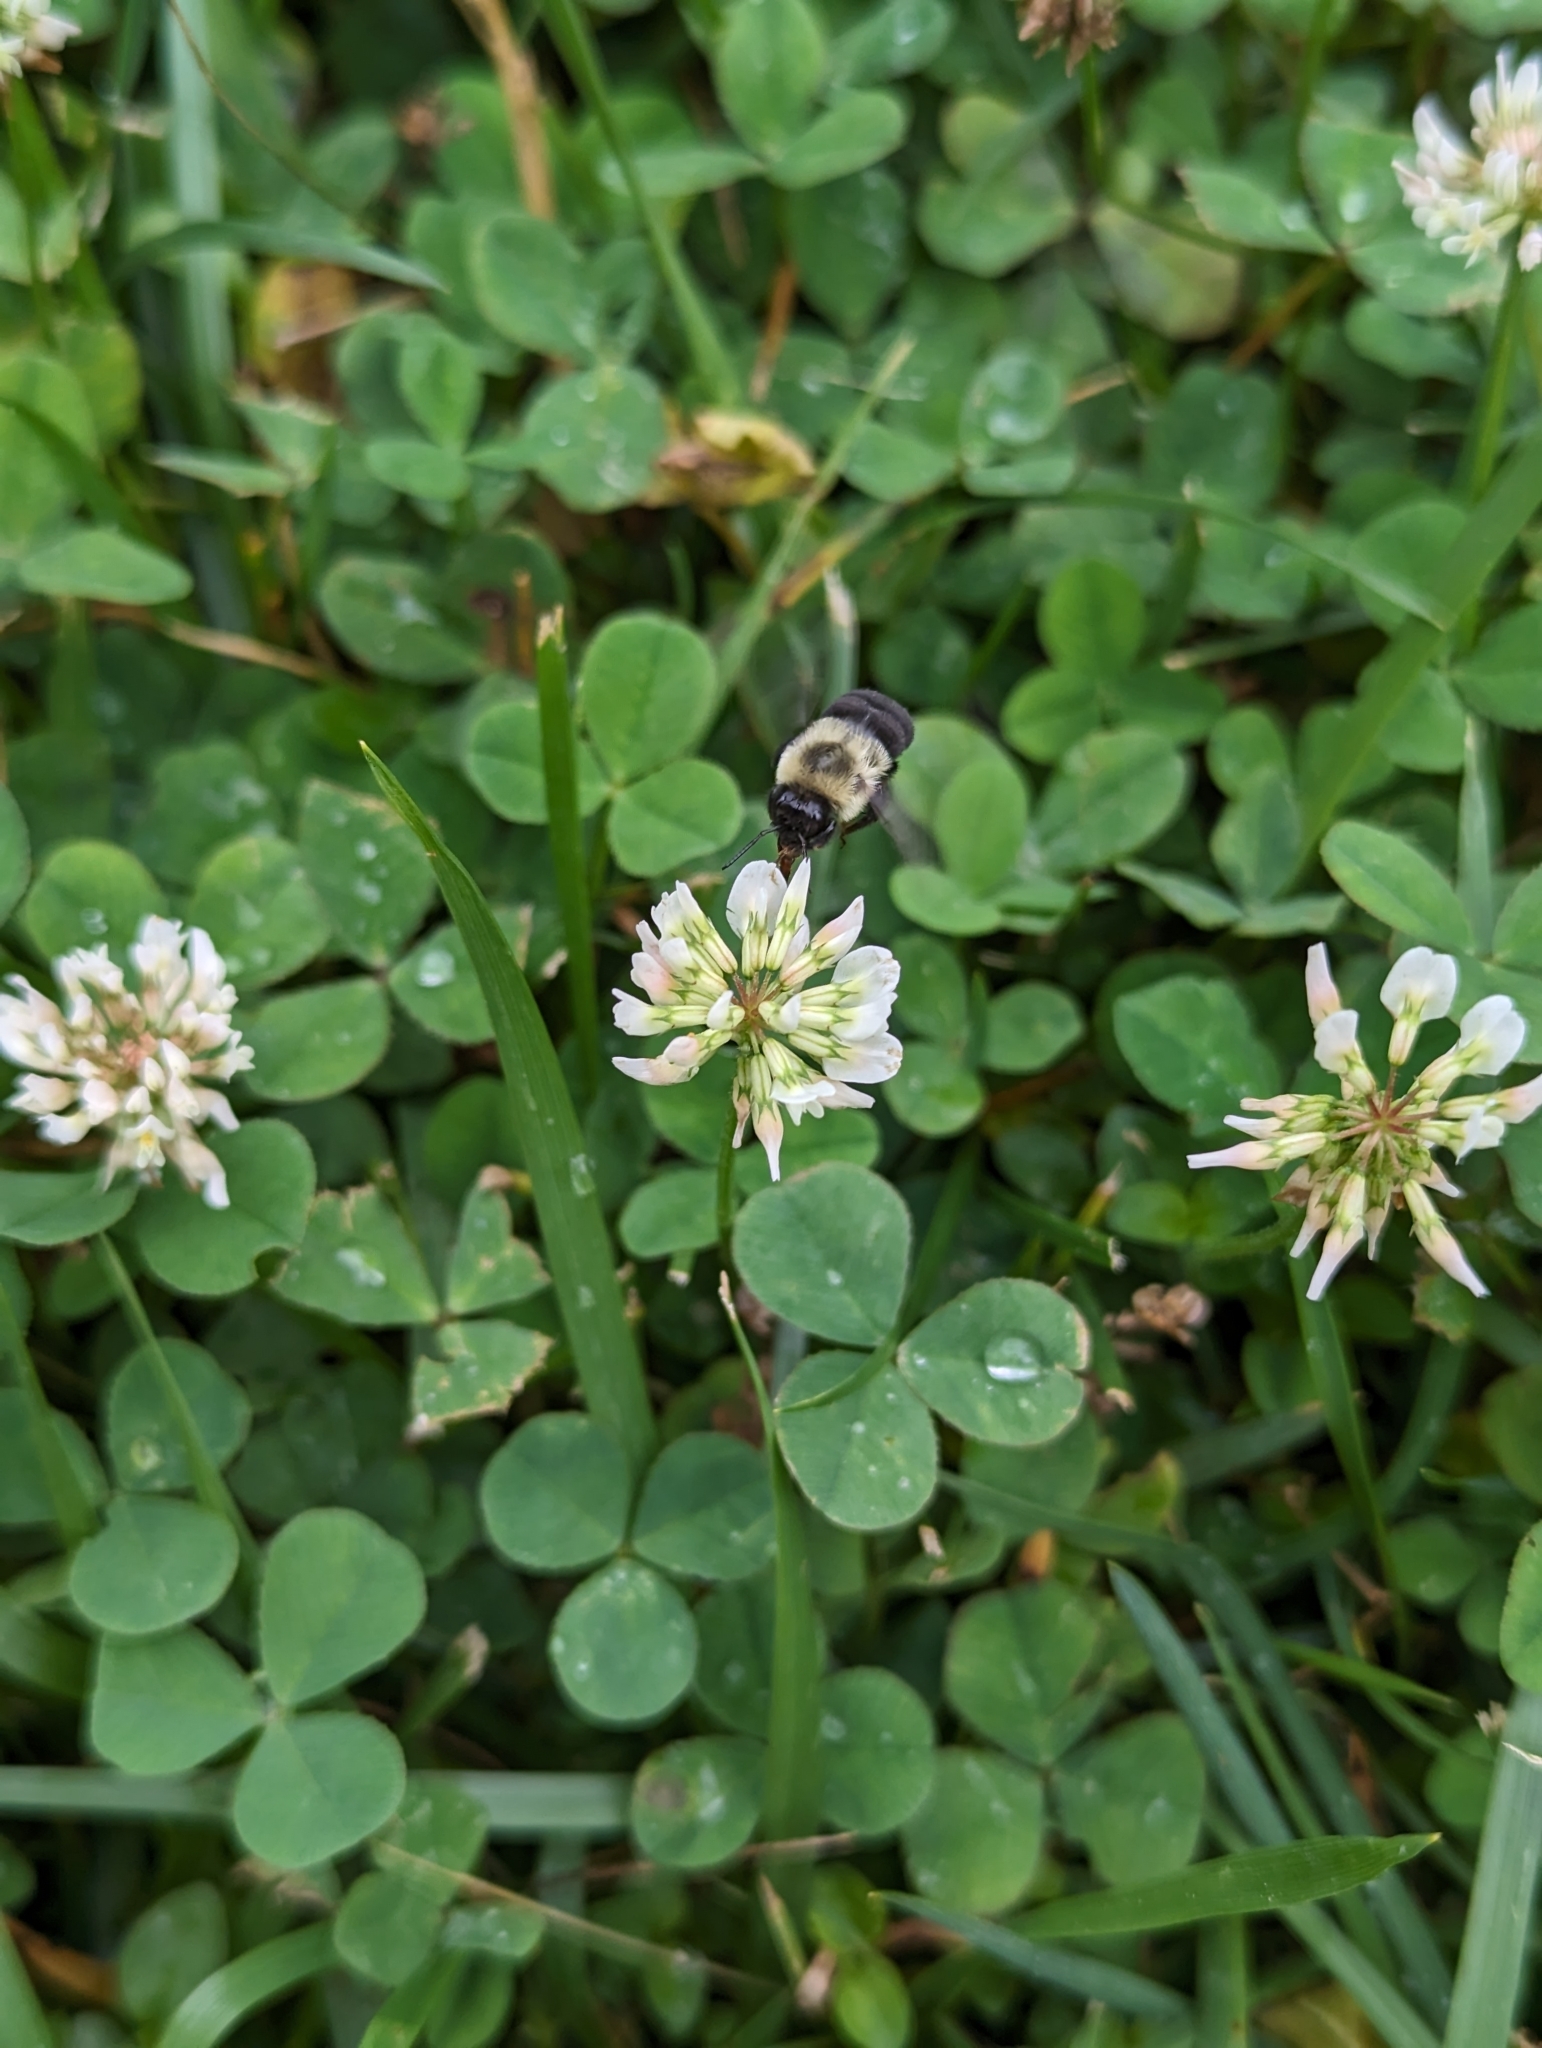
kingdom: Animalia
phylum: Arthropoda
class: Insecta
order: Hymenoptera
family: Apidae
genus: Bombus
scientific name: Bombus impatiens
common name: Common eastern bumble bee
